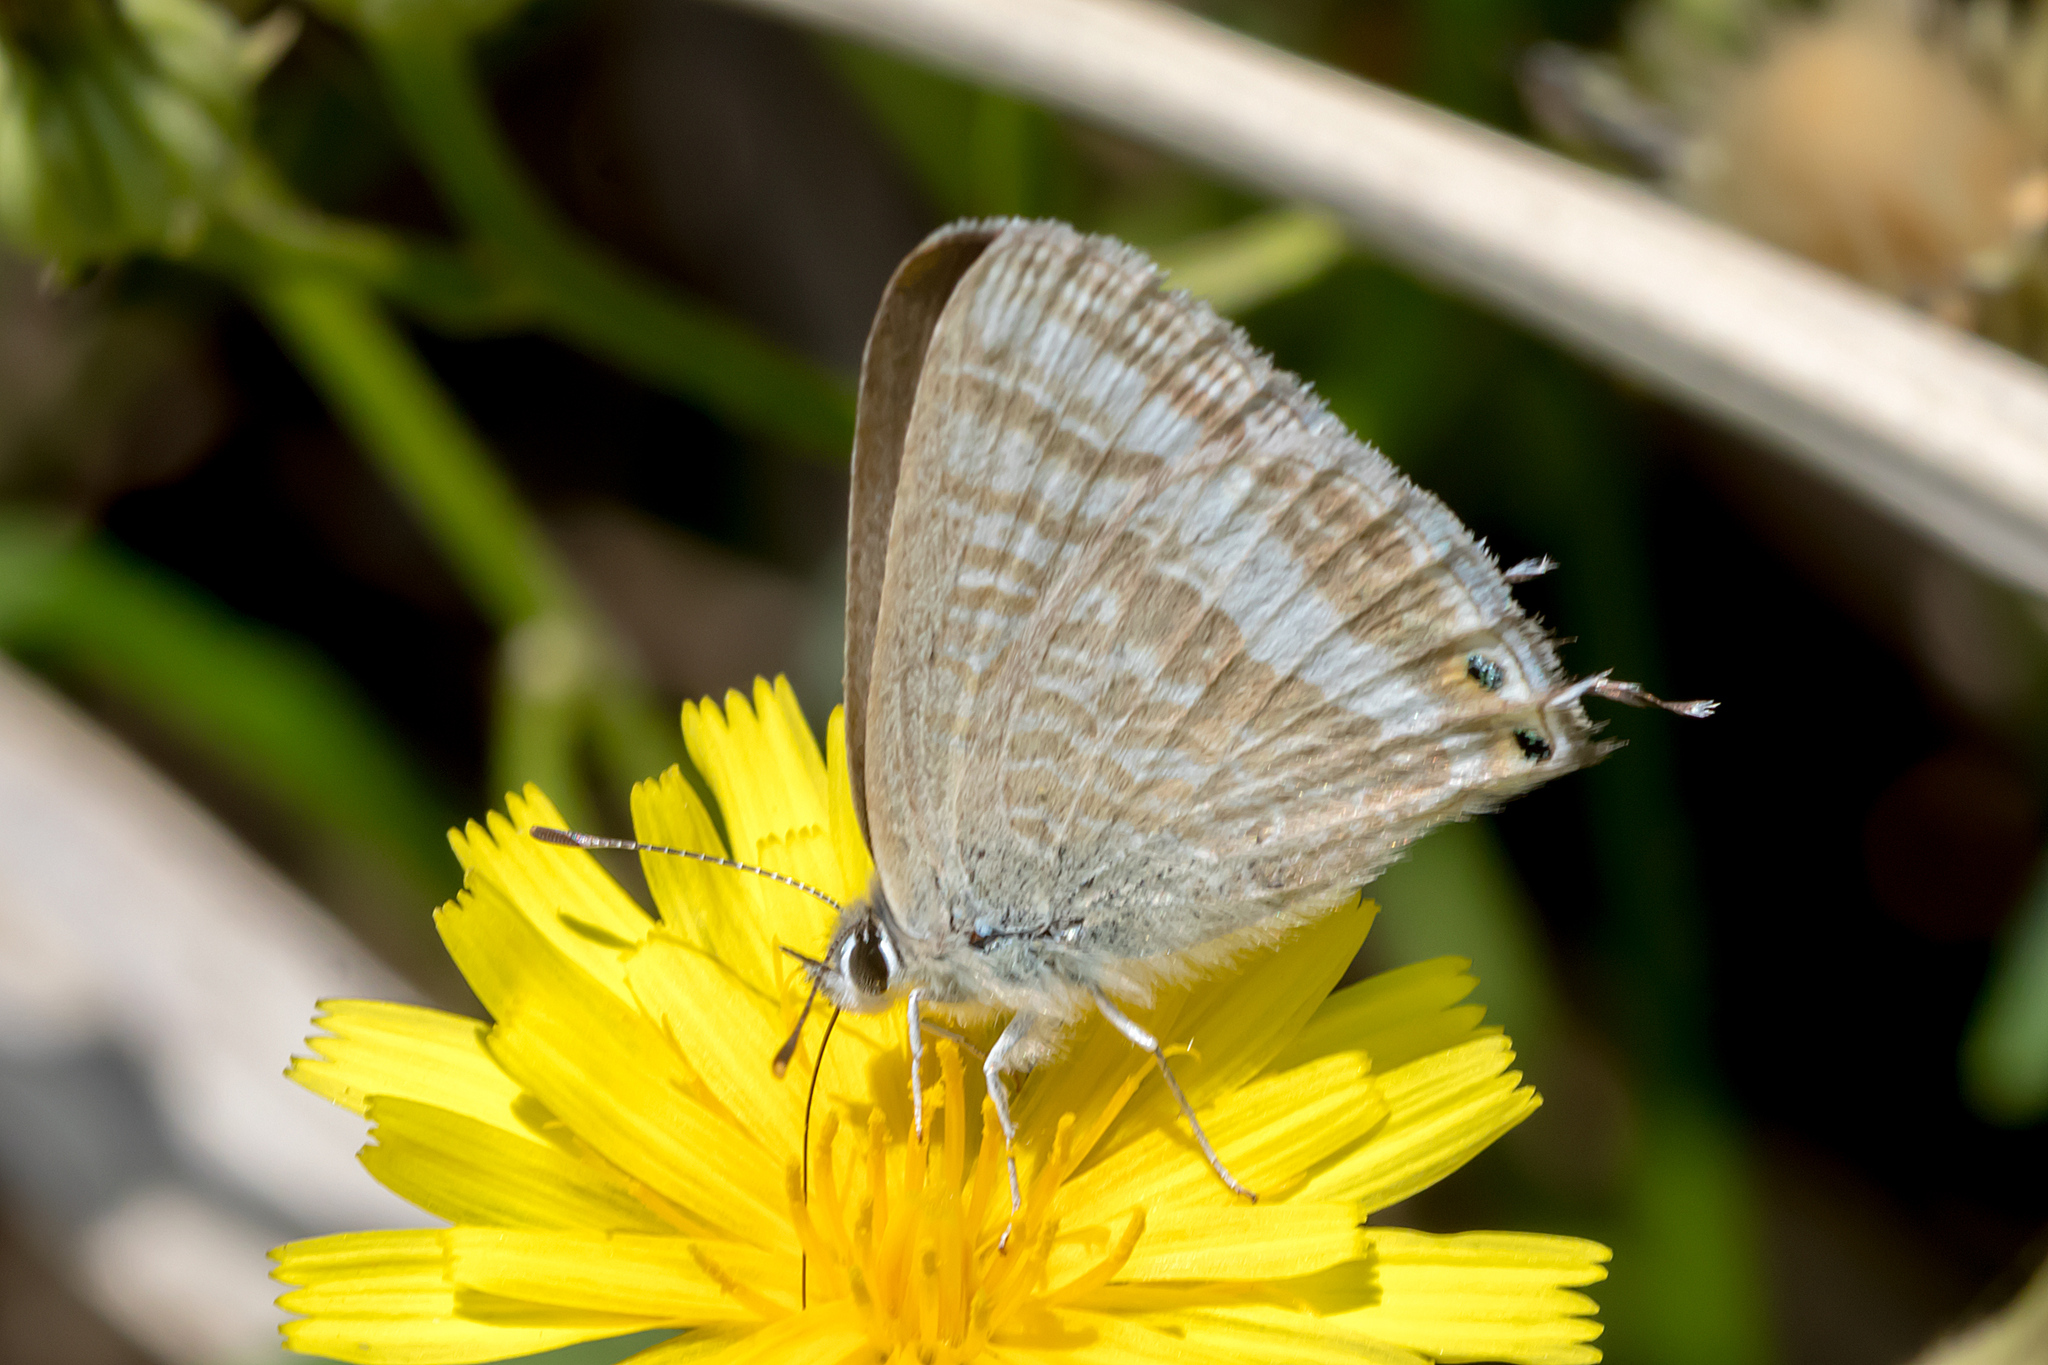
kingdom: Animalia
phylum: Arthropoda
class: Insecta
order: Lepidoptera
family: Lycaenidae
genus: Lampides
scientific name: Lampides boeticus
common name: Long-tailed blue
